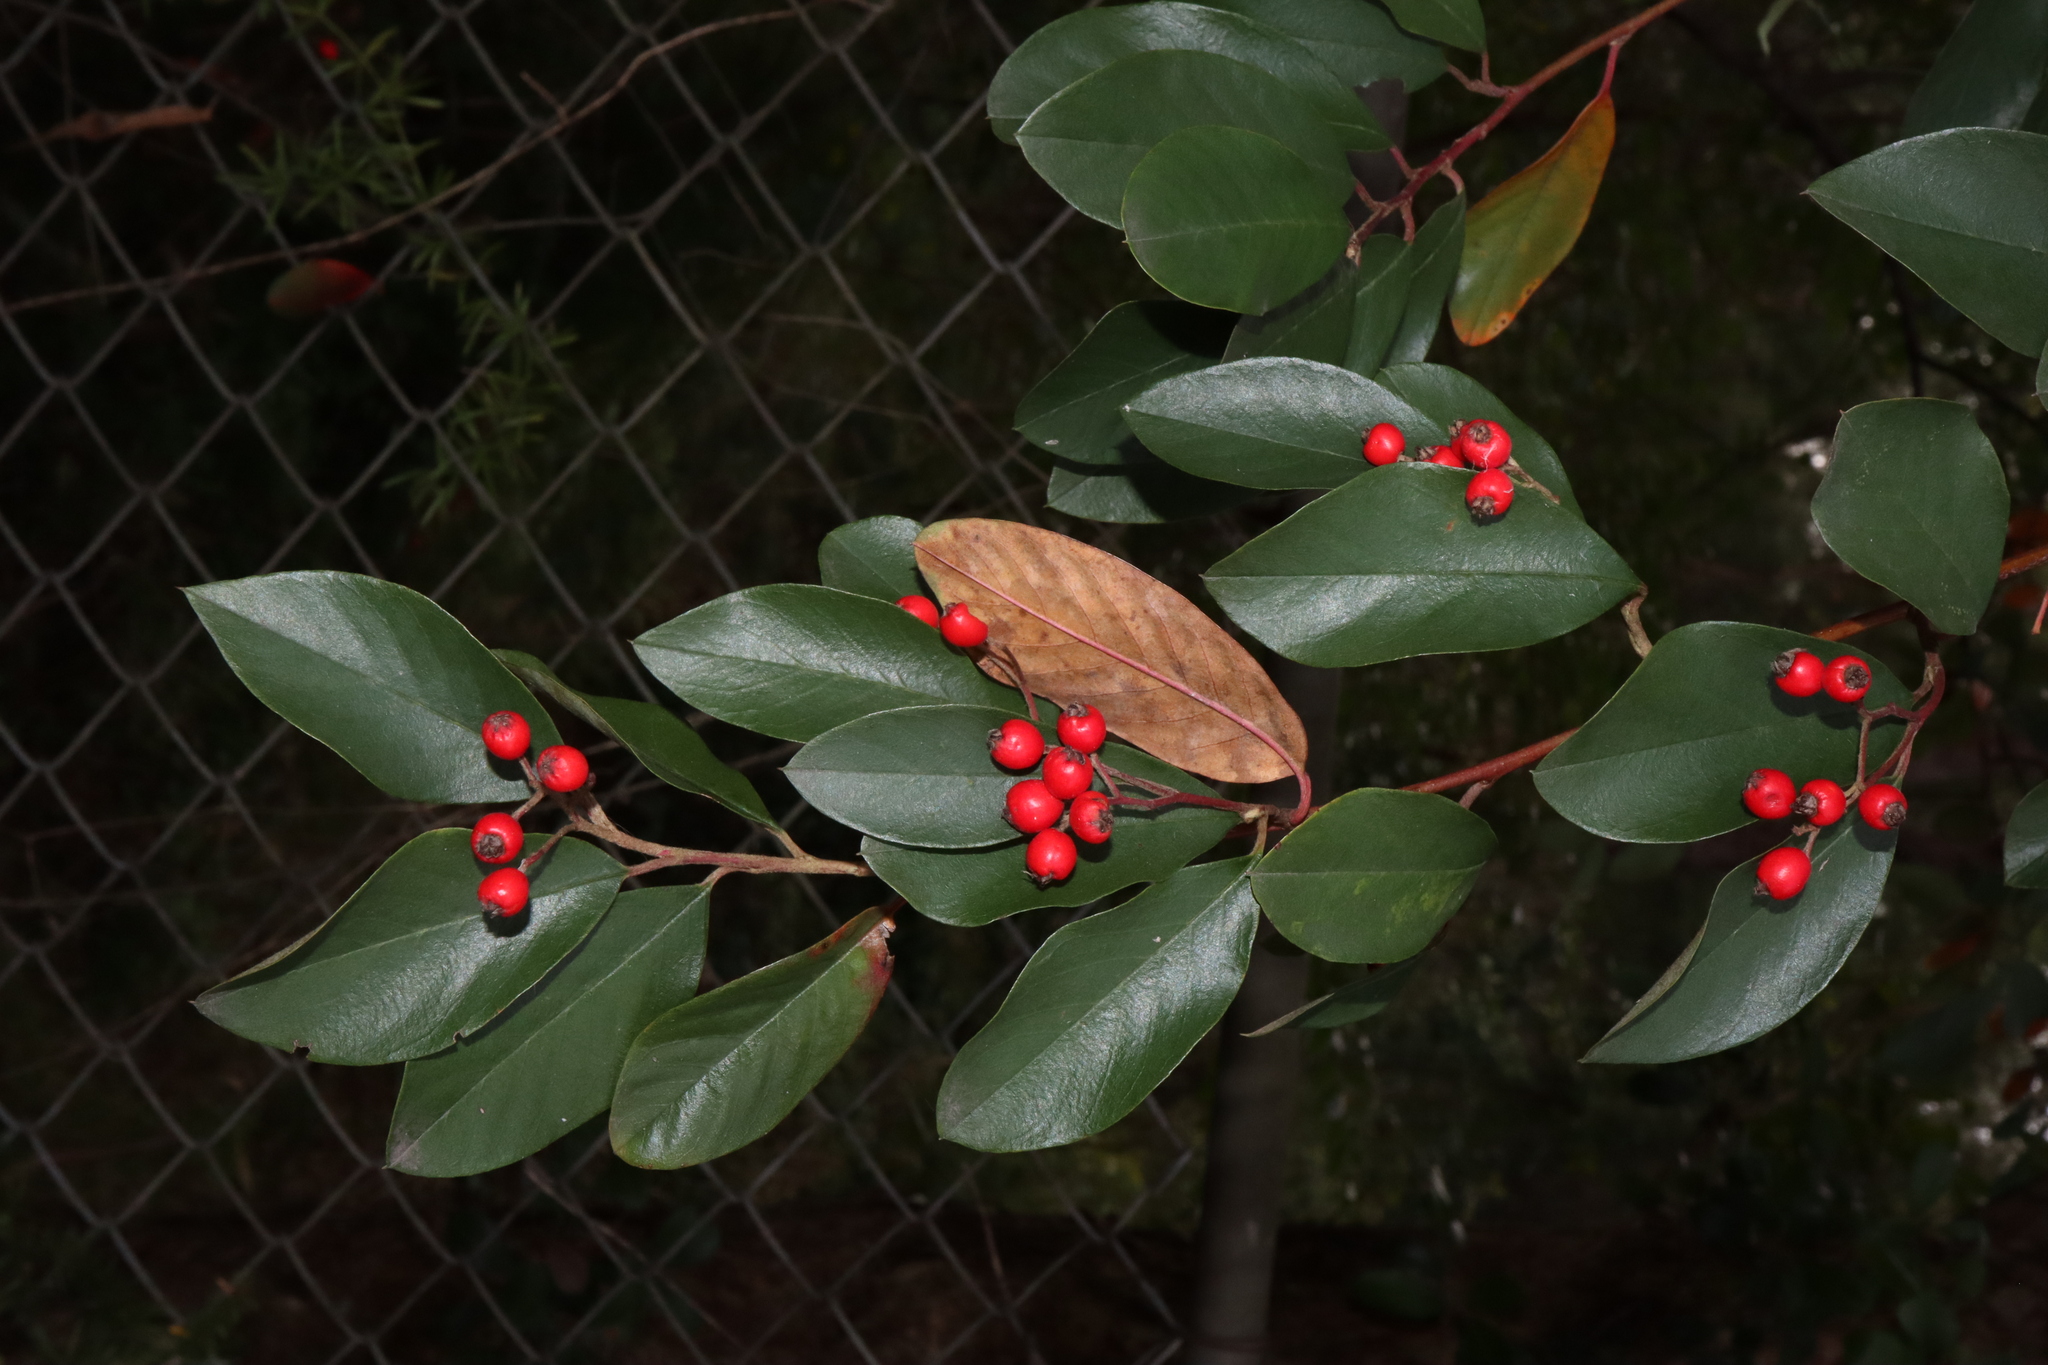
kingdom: Plantae
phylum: Tracheophyta
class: Magnoliopsida
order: Rosales
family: Rosaceae
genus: Cotoneaster
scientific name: Cotoneaster glaucophyllus
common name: Glaucous cotoneaster
